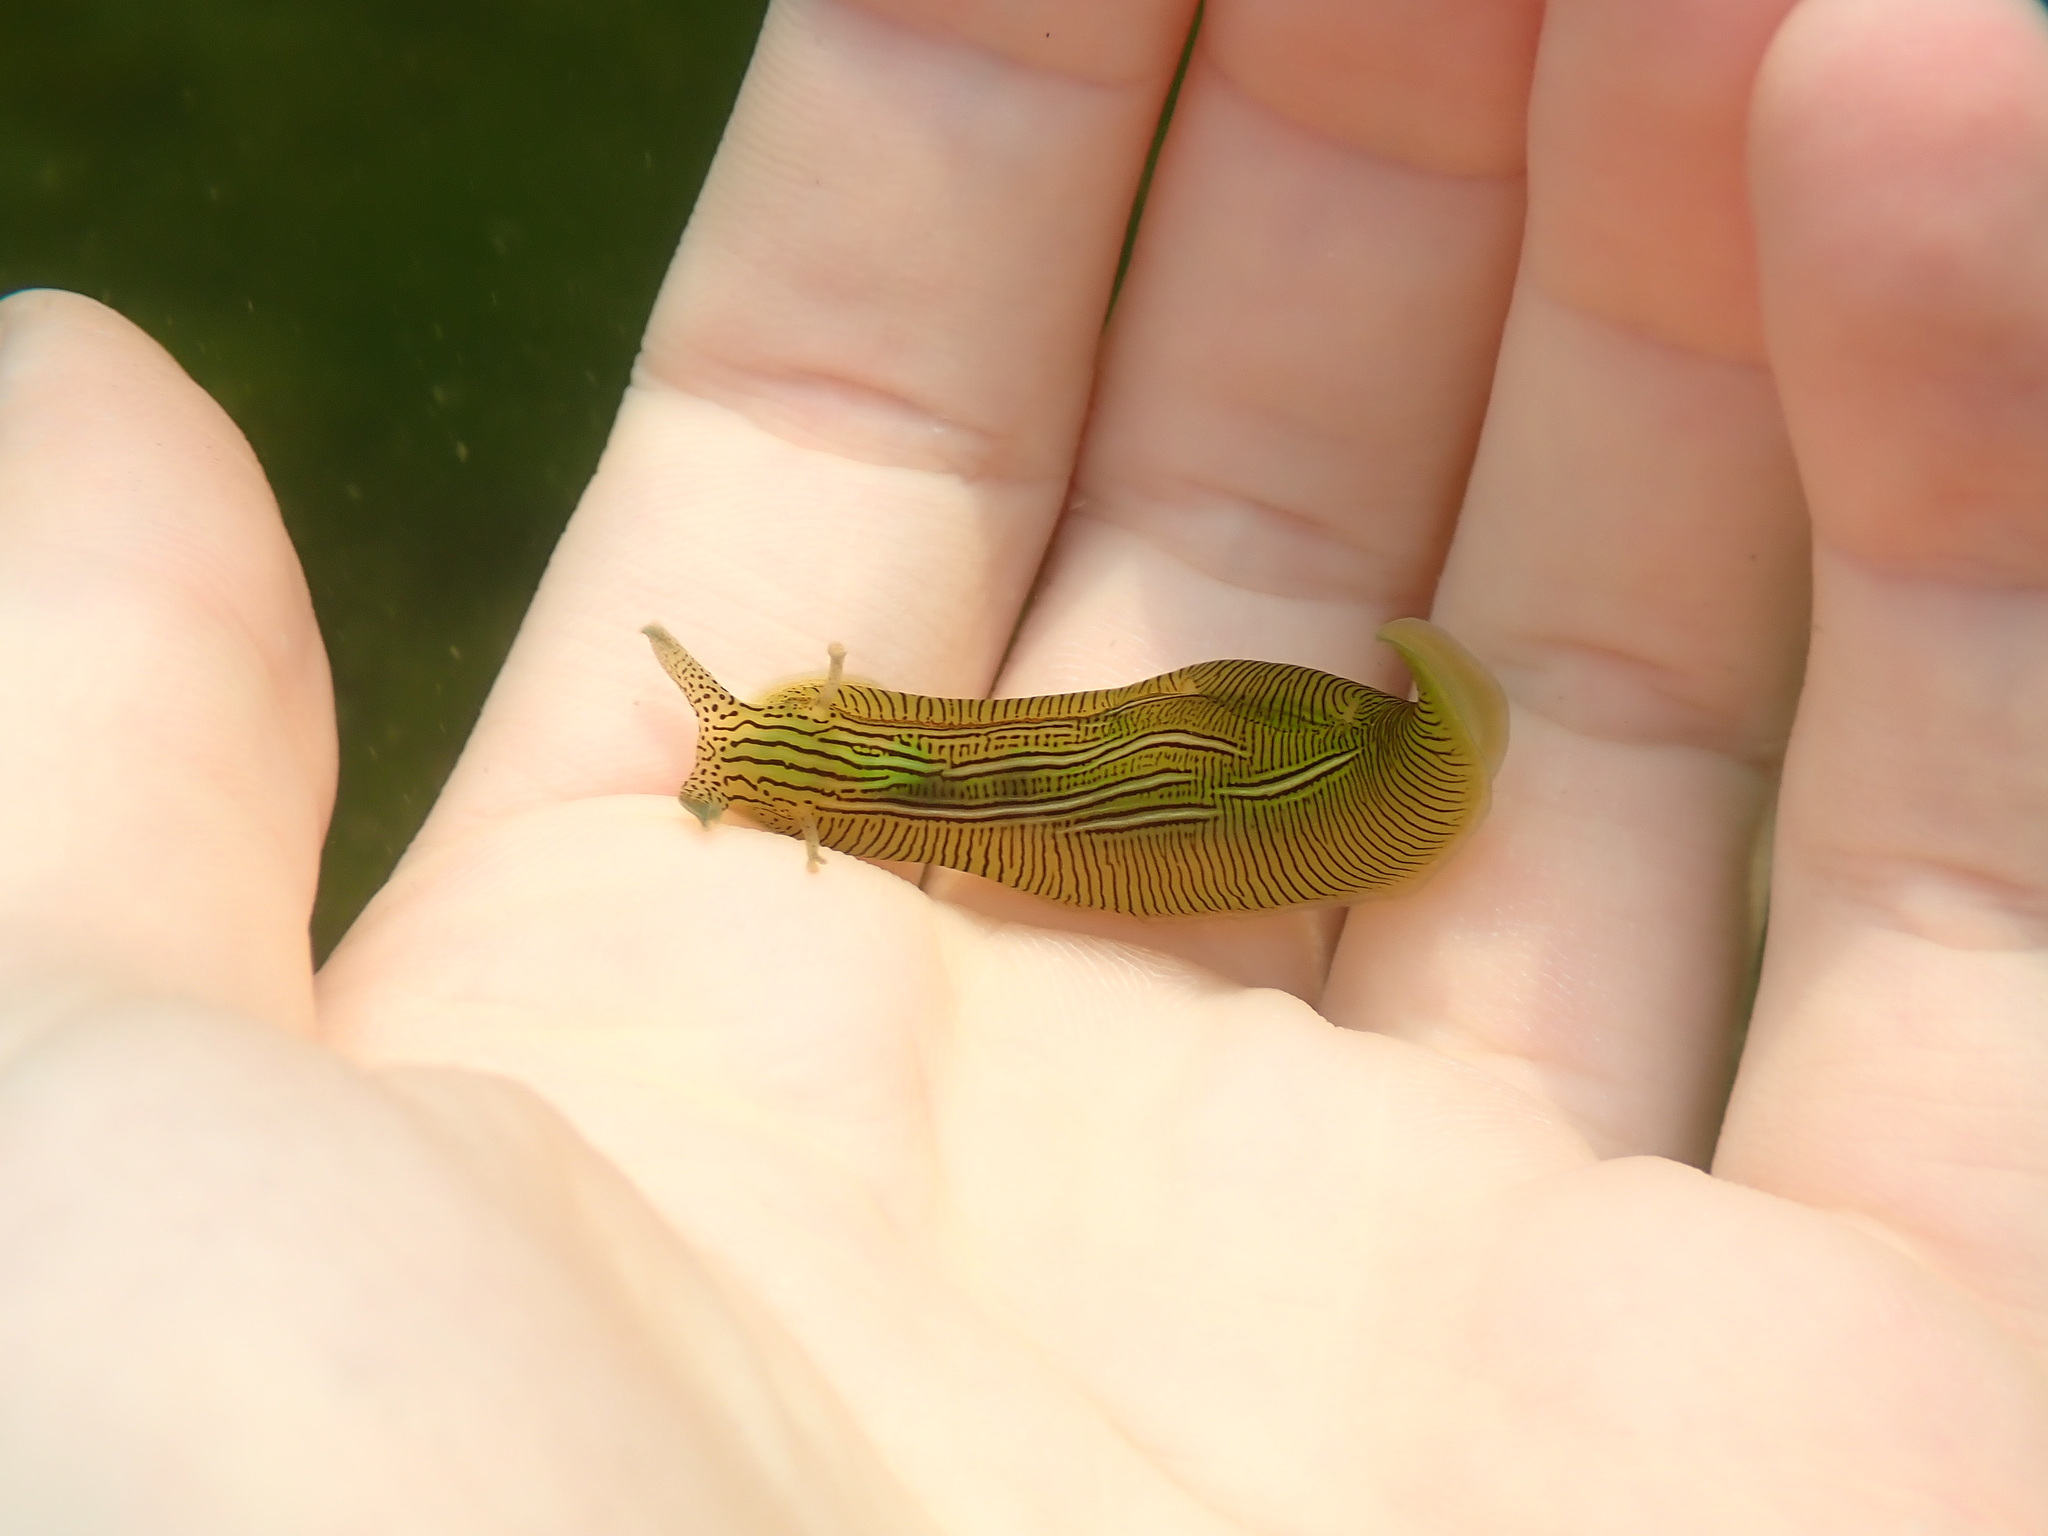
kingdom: Animalia
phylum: Mollusca
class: Gastropoda
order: Aplysiida
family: Aplysiidae
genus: Phyllaplysia
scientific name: Phyllaplysia taylori
